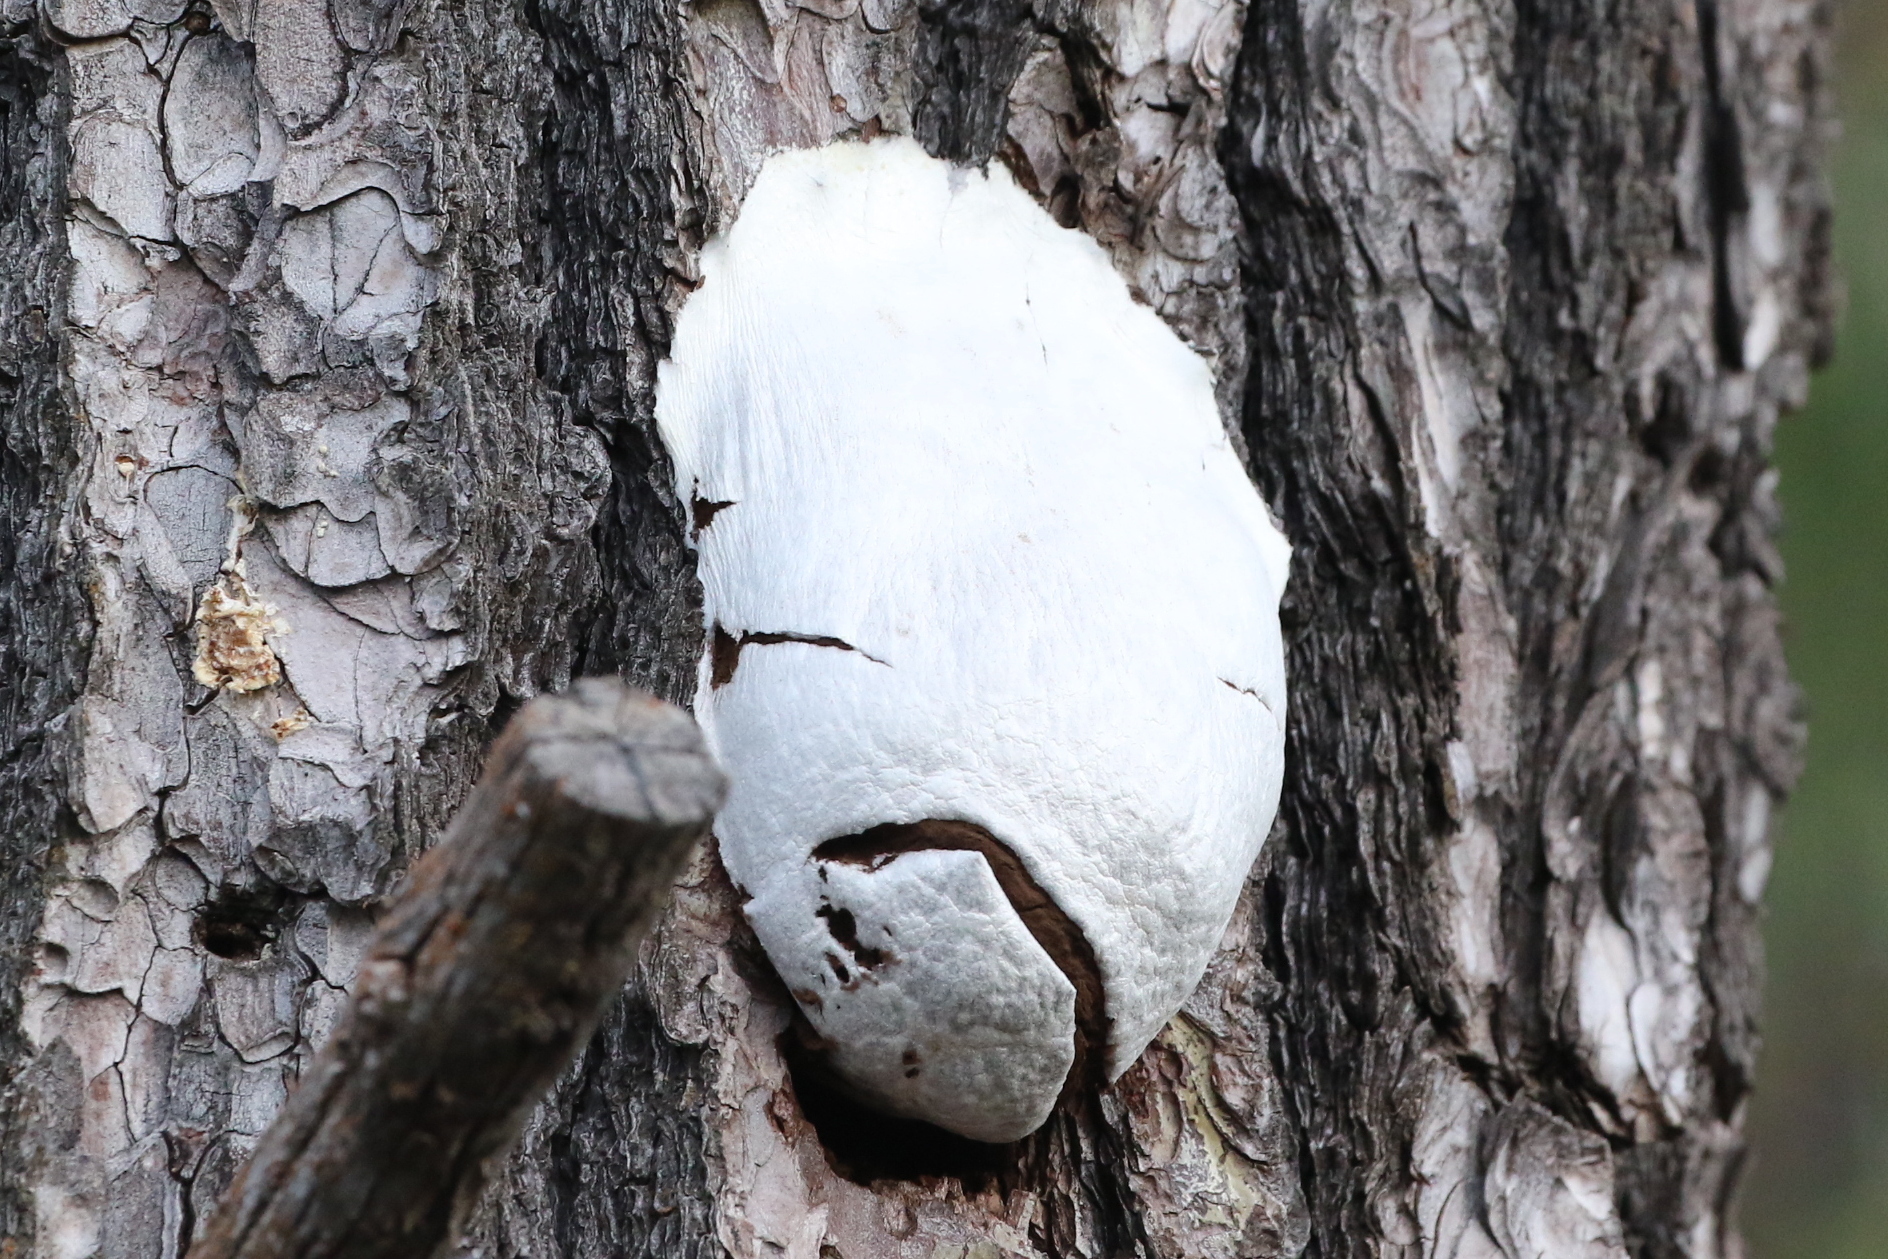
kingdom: Protozoa
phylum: Mycetozoa
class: Myxomycetes
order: Cribrariales
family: Tubiferaceae
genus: Reticularia
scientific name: Reticularia lycoperdon
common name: False puffball
